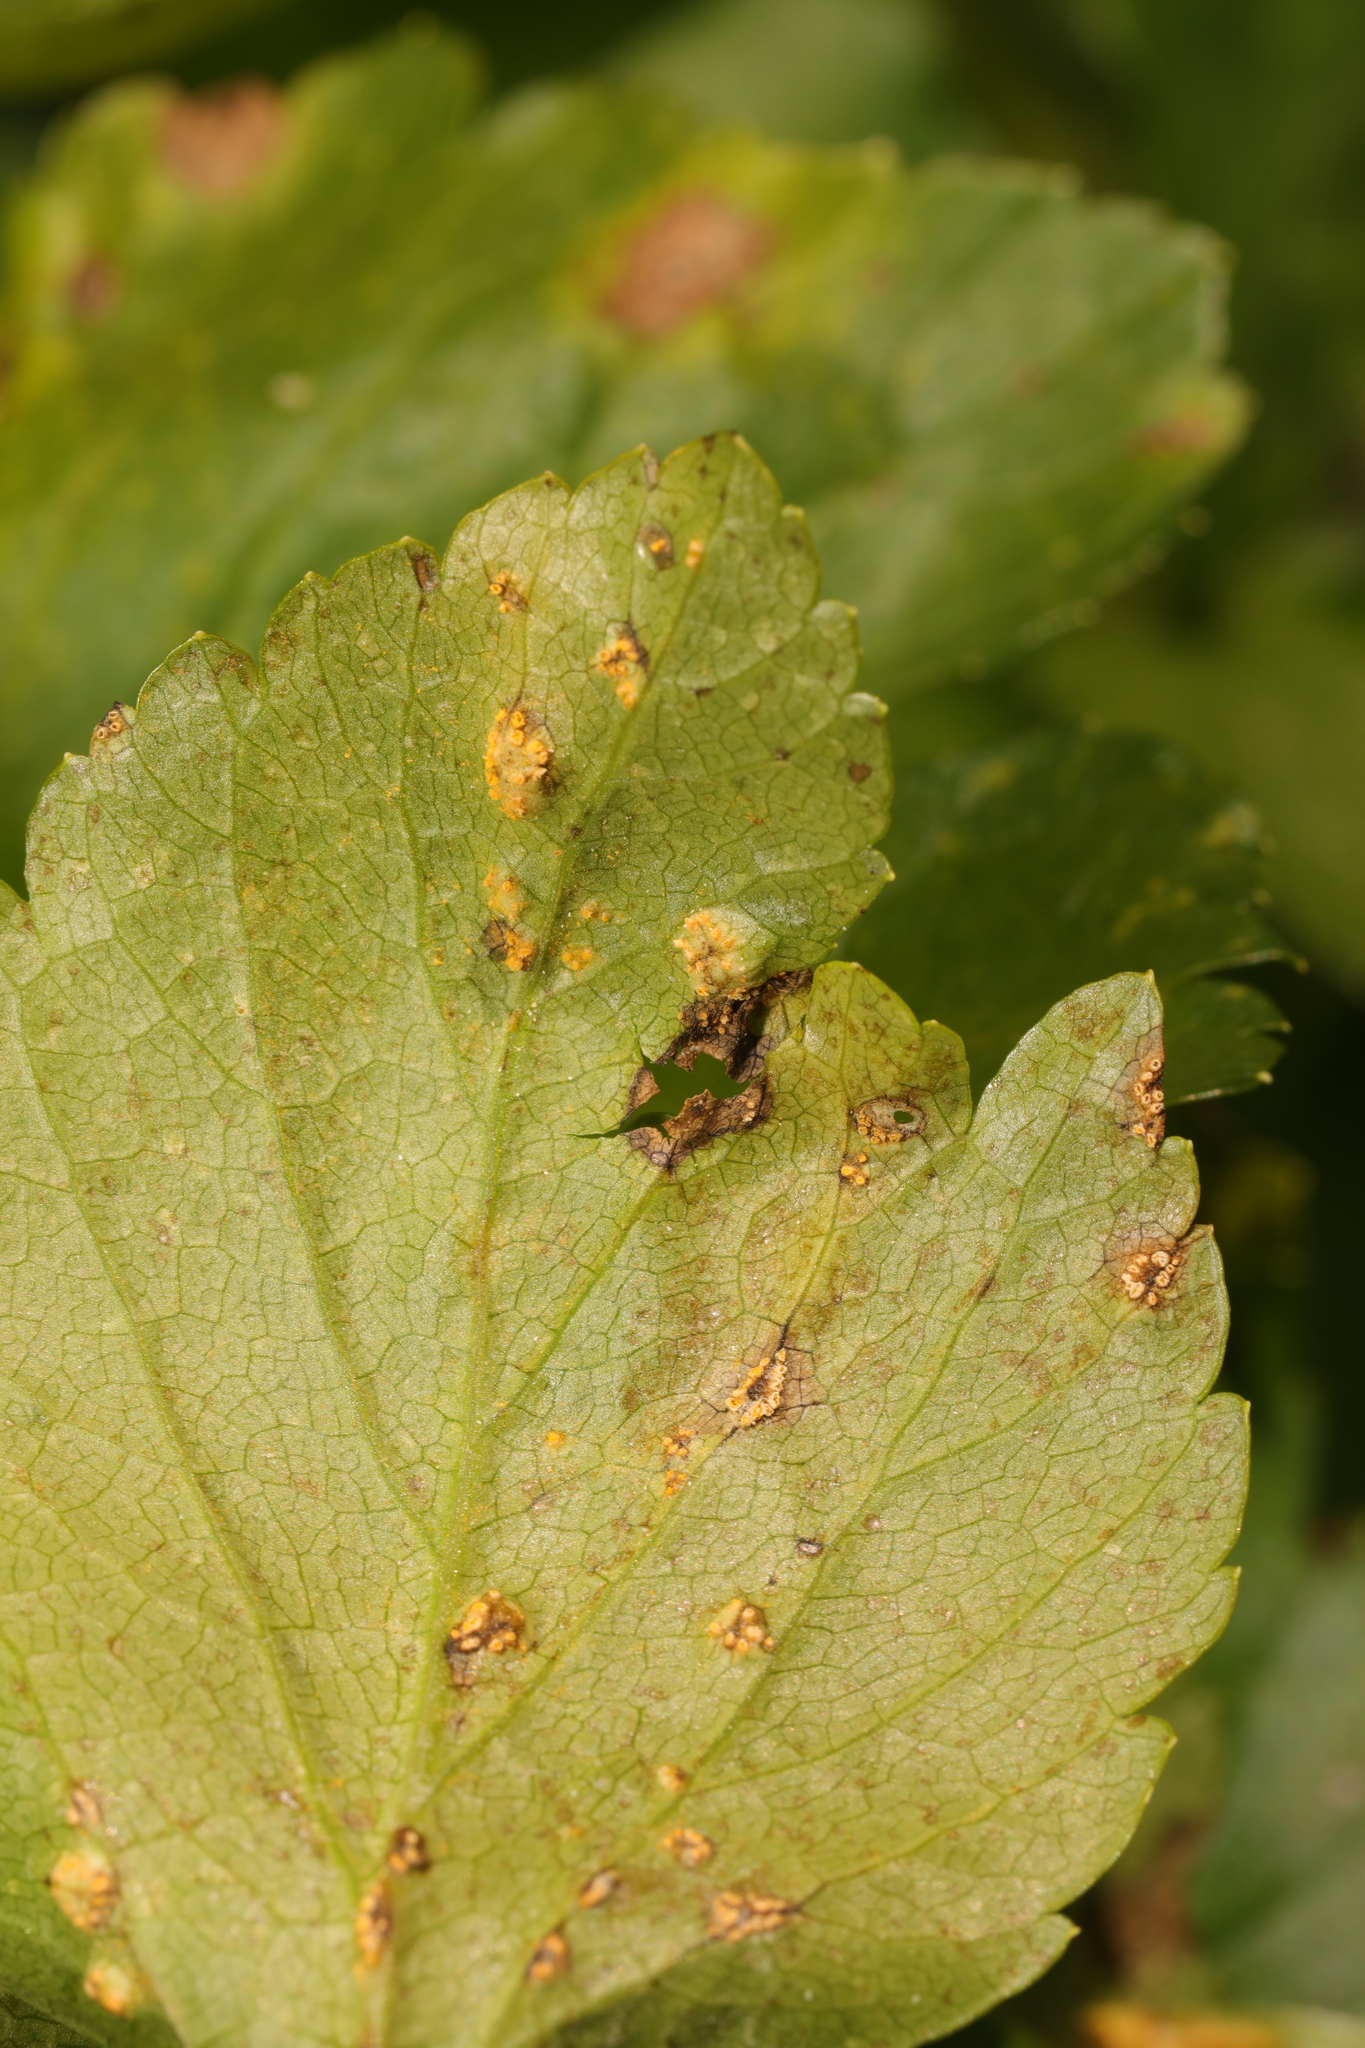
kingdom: Fungi
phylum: Basidiomycota
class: Pucciniomycetes
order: Pucciniales
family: Pucciniaceae
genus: Puccinia
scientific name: Puccinia smyrnii
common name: Alexanders rust
